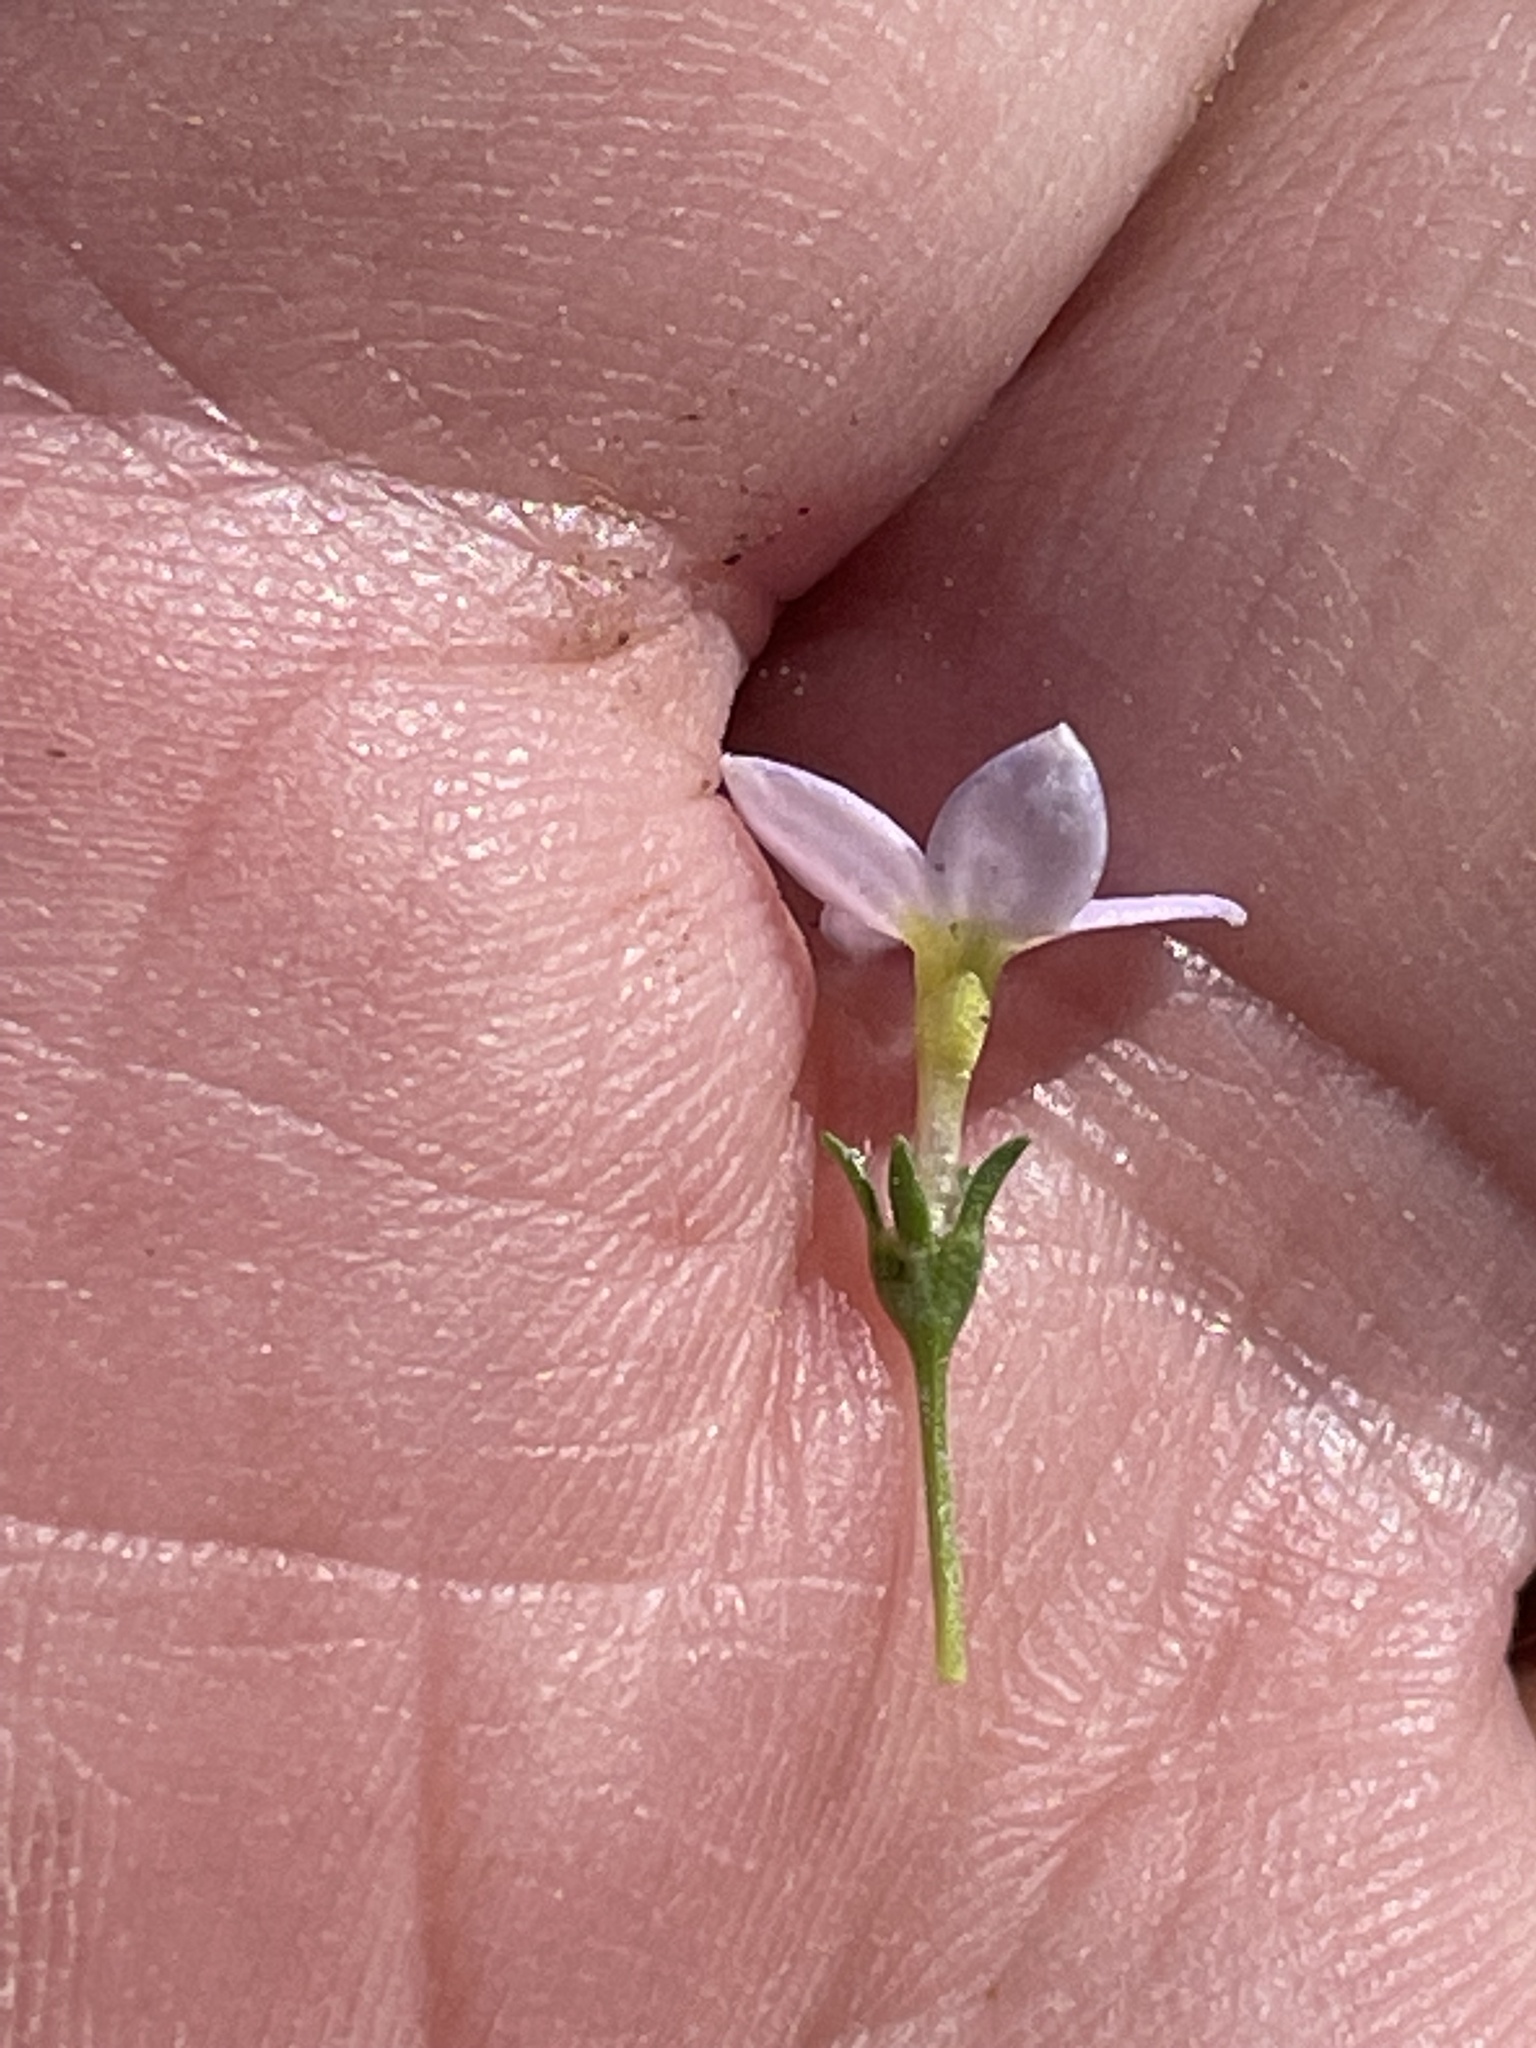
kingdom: Plantae
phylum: Tracheophyta
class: Magnoliopsida
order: Gentianales
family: Rubiaceae
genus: Houstonia
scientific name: Houstonia rosea
